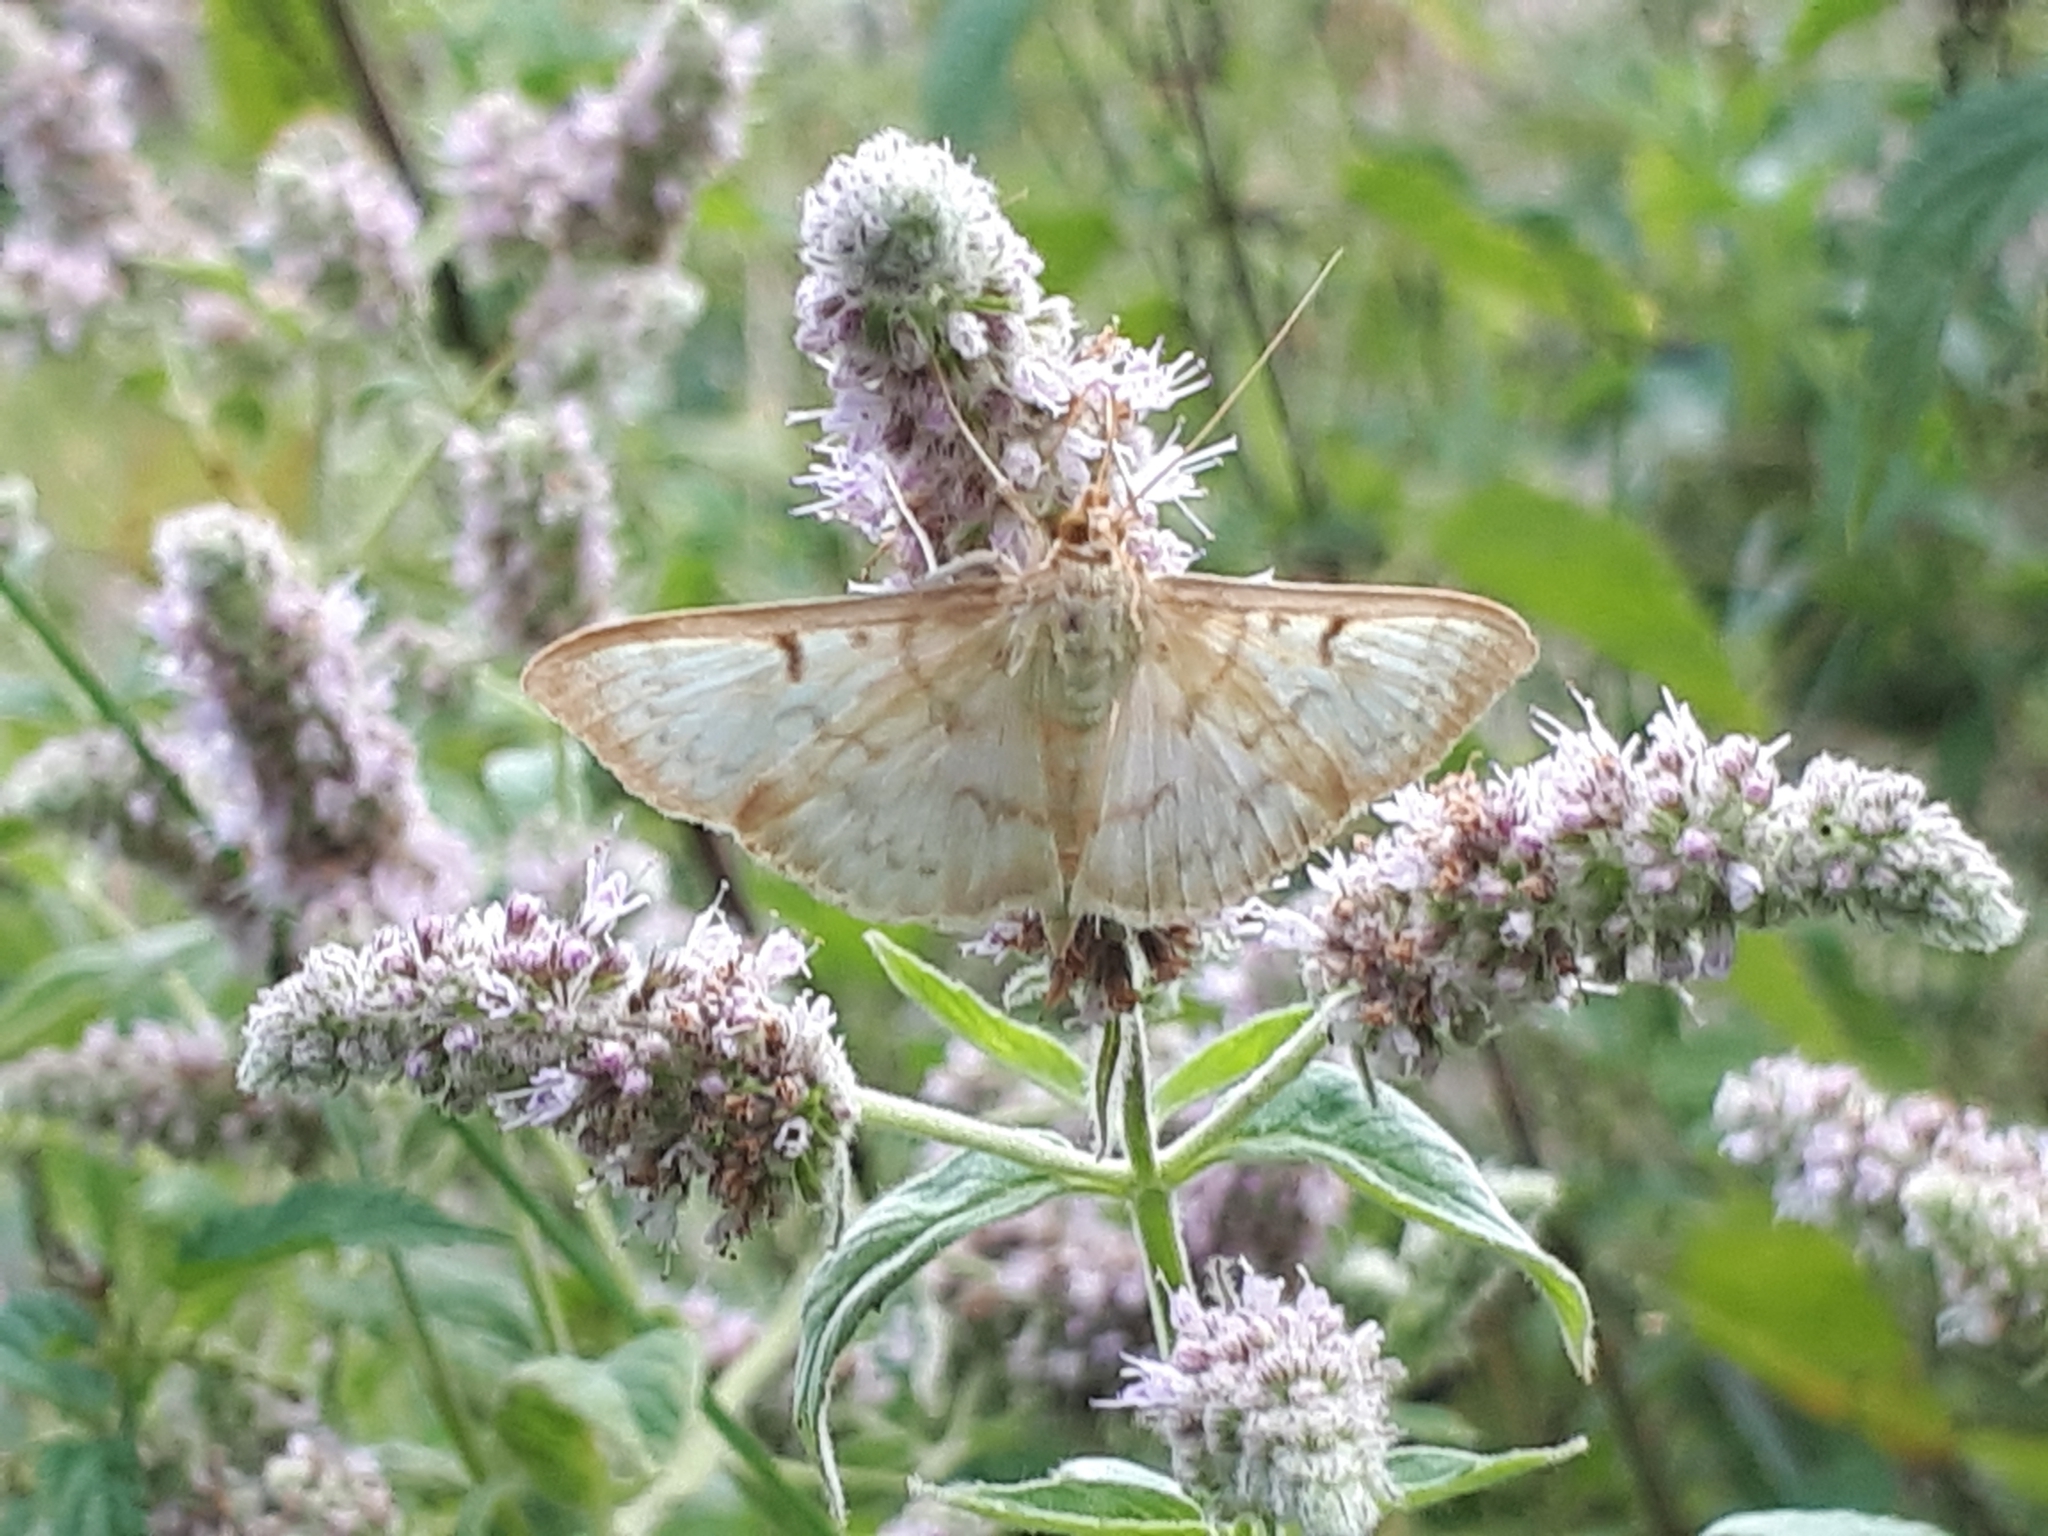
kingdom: Animalia
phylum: Arthropoda
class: Insecta
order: Lepidoptera
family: Crambidae
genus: Patania
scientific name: Patania ruralis
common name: Mother of pearl
